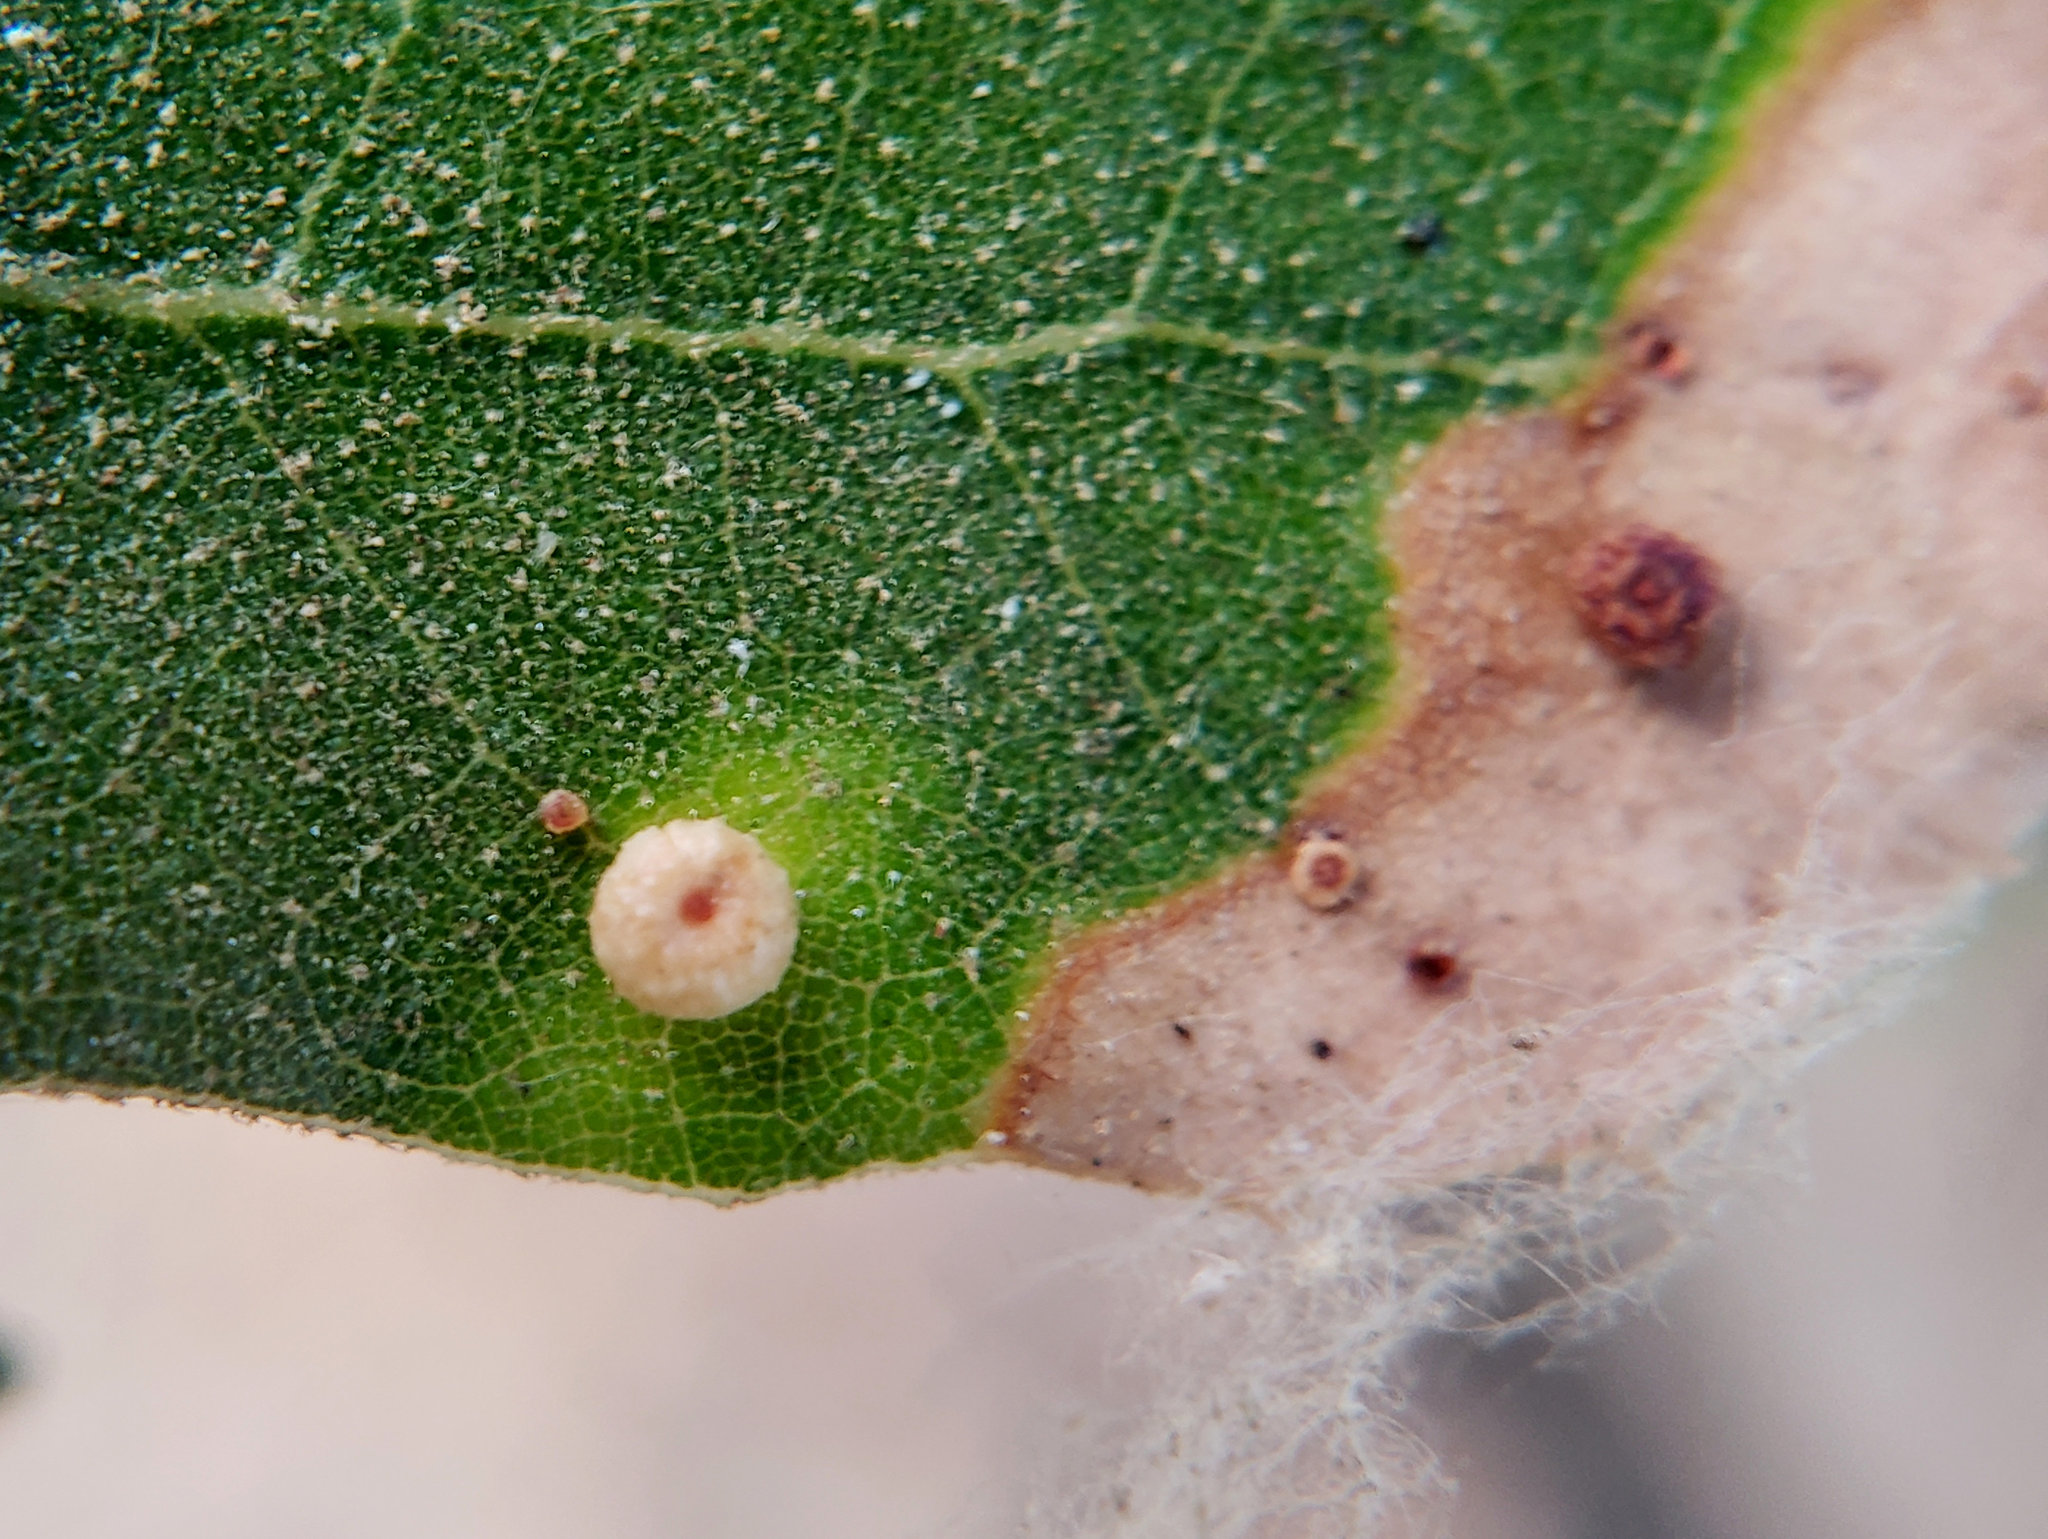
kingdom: Animalia
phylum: Arthropoda
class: Insecta
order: Hymenoptera
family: Cynipidae
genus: Dryocosmus
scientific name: Dryocosmus
